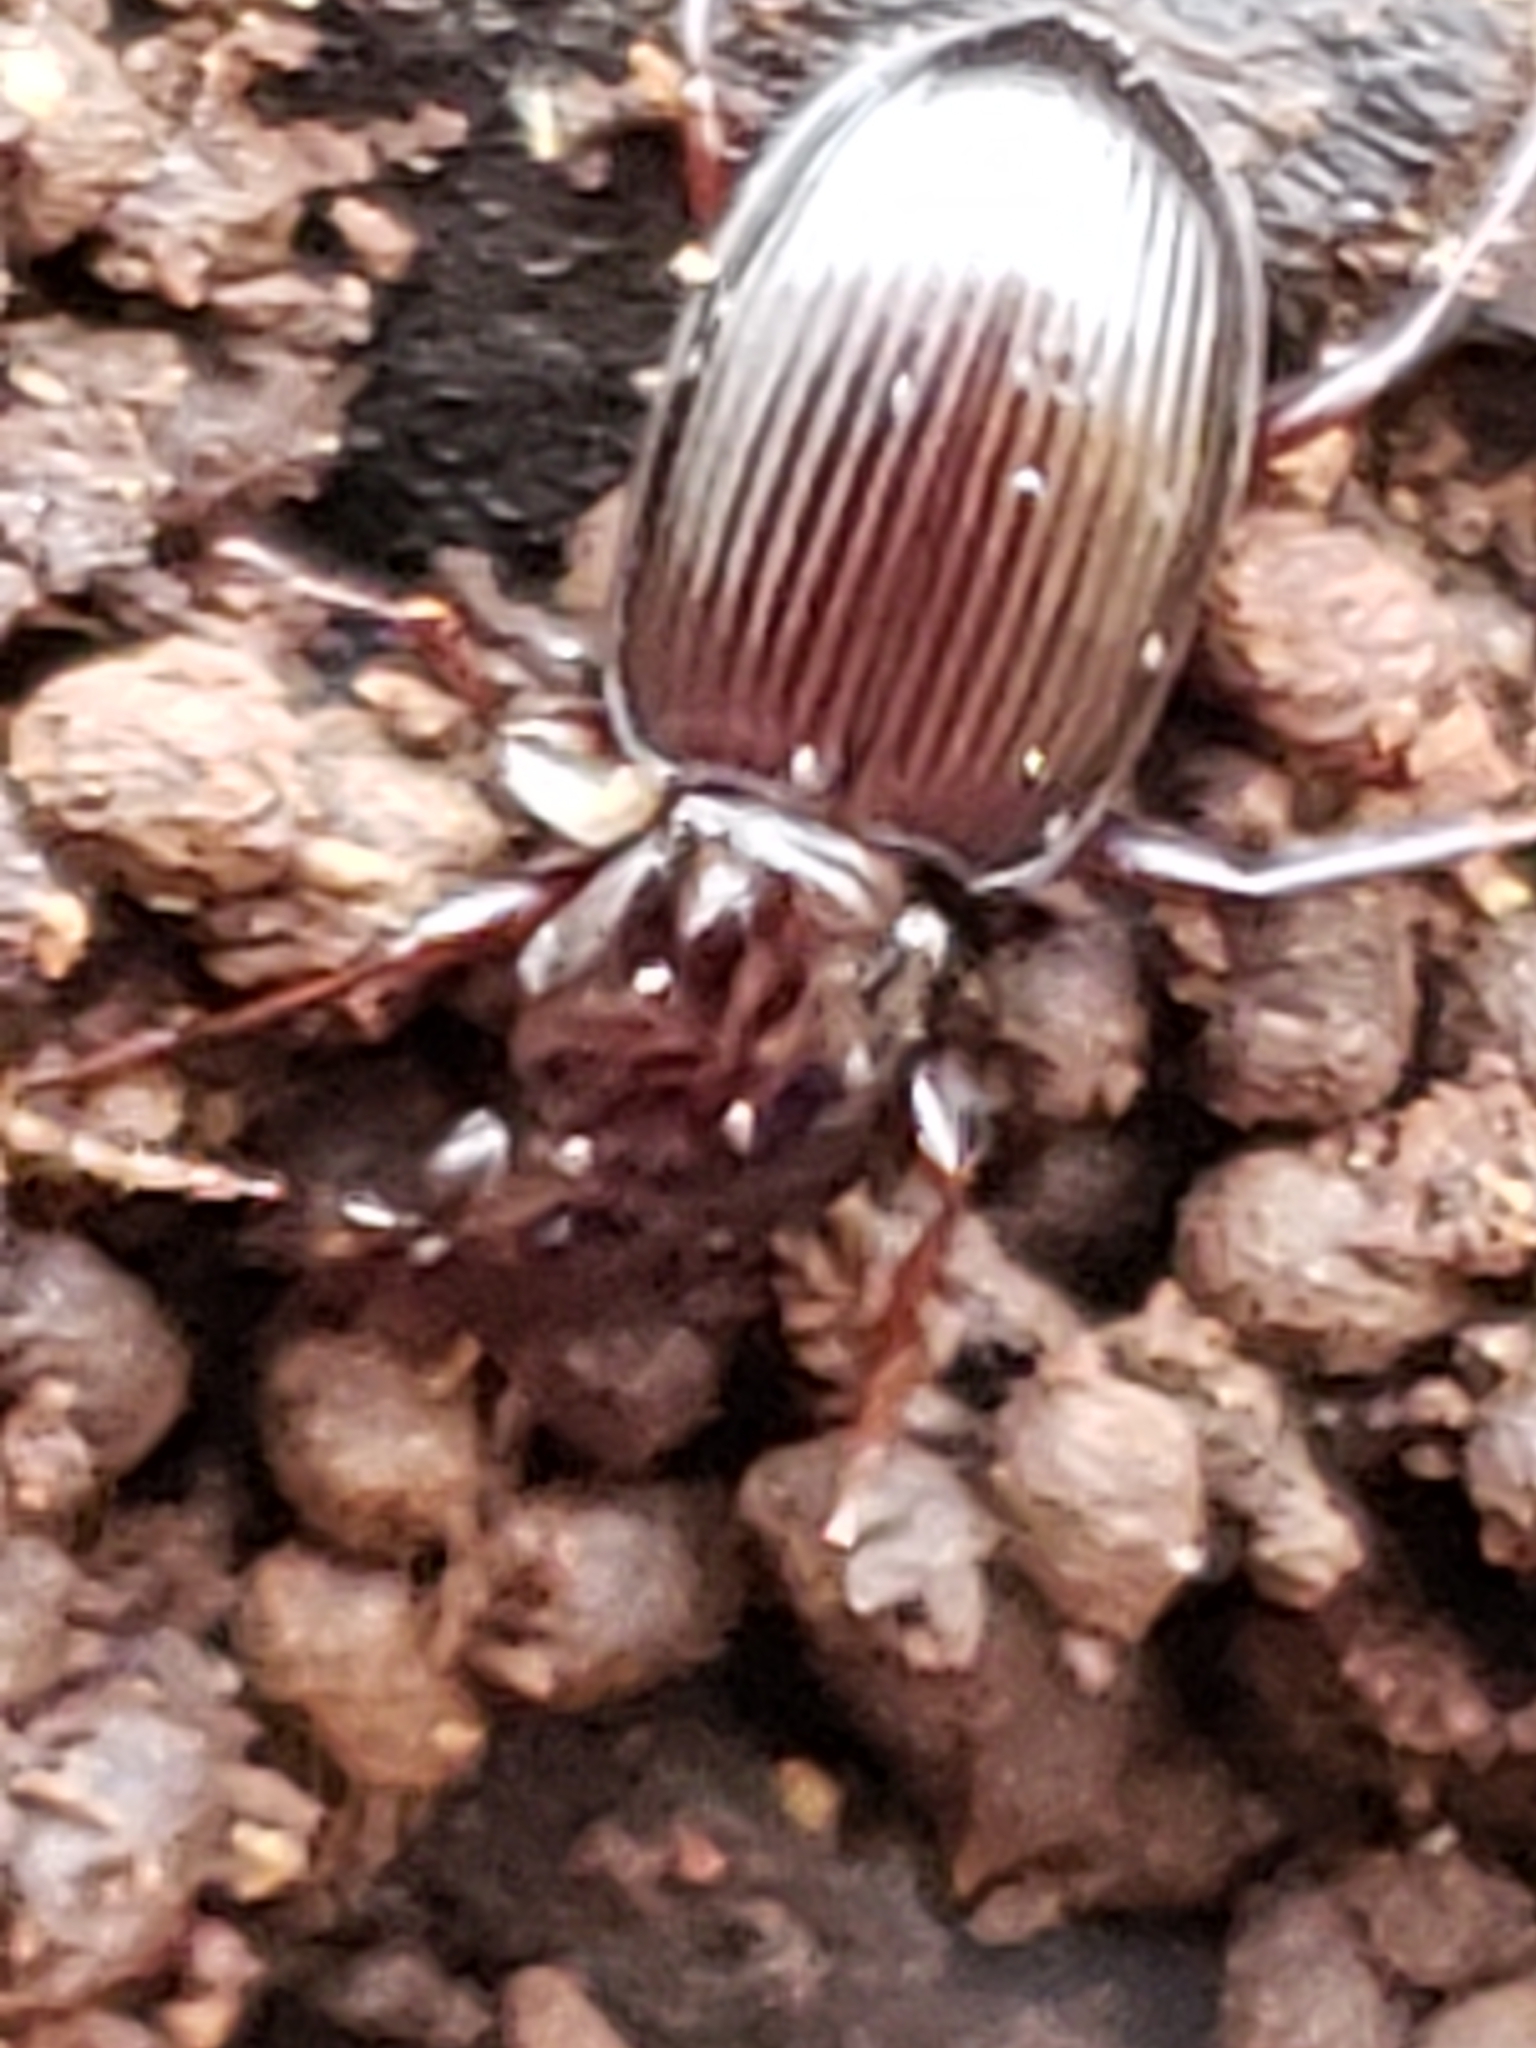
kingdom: Animalia
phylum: Arthropoda
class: Insecta
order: Coleoptera
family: Carabidae
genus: Gastrellarius
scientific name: Gastrellarius honestus
